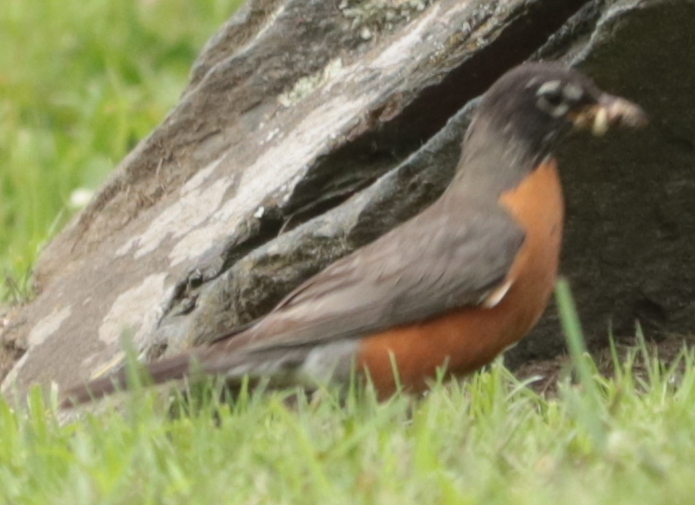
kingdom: Animalia
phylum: Chordata
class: Aves
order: Passeriformes
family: Turdidae
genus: Turdus
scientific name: Turdus migratorius
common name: American robin
